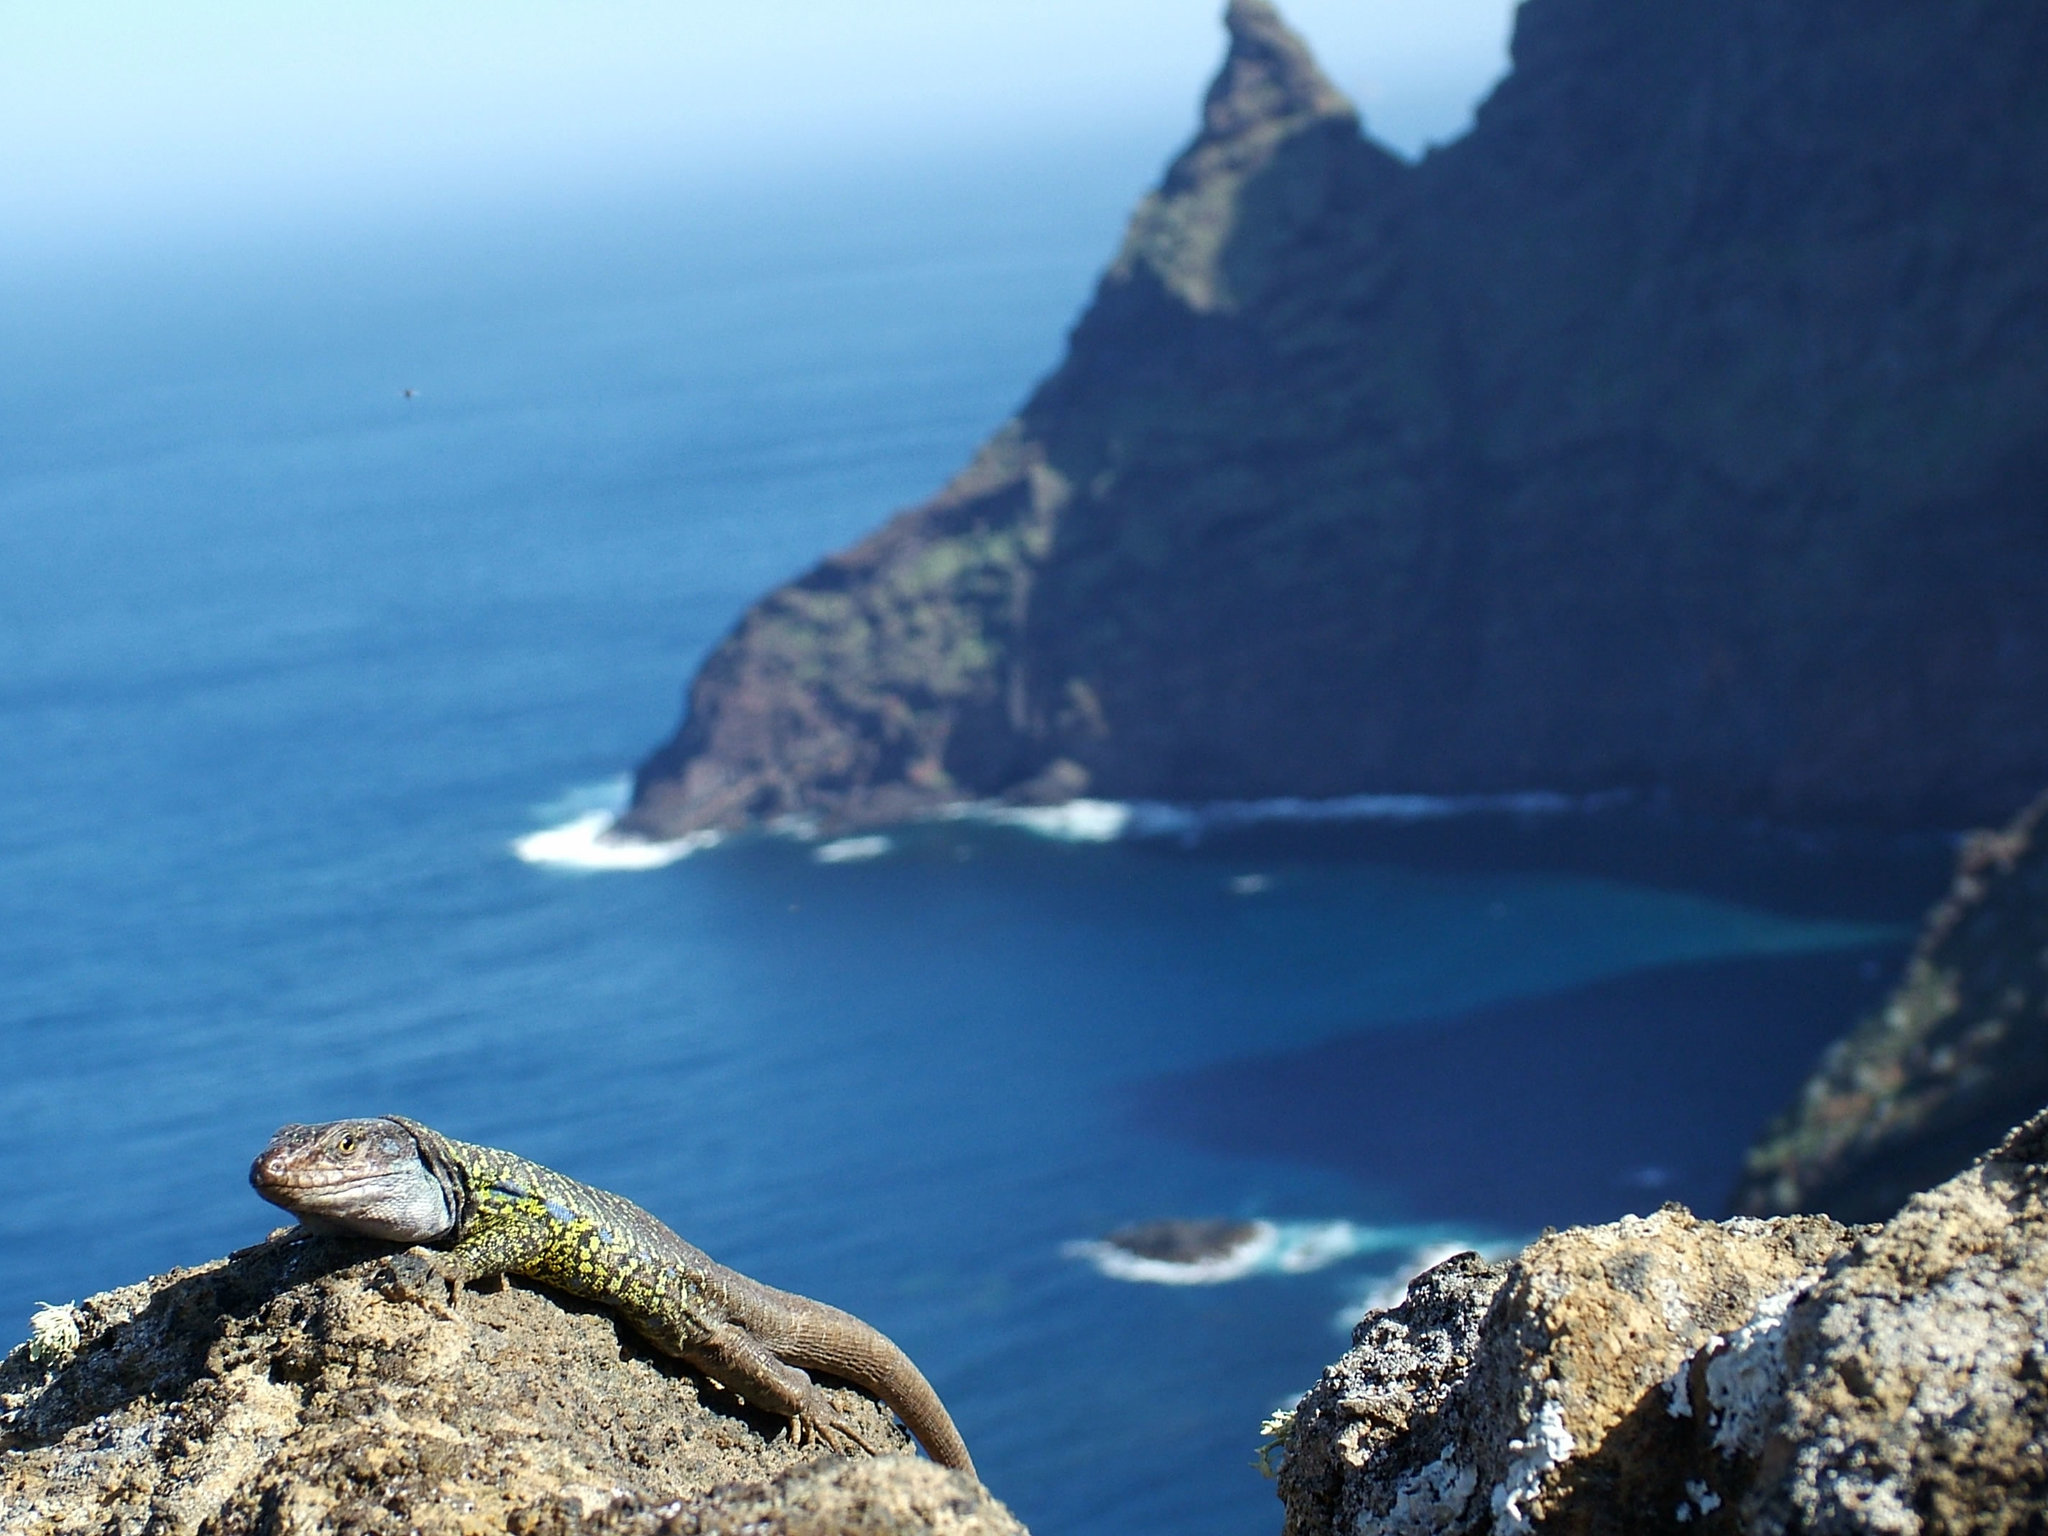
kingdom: Animalia
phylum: Chordata
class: Squamata
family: Lacertidae
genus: Gallotia
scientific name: Gallotia galloti
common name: Gallot's lizard
